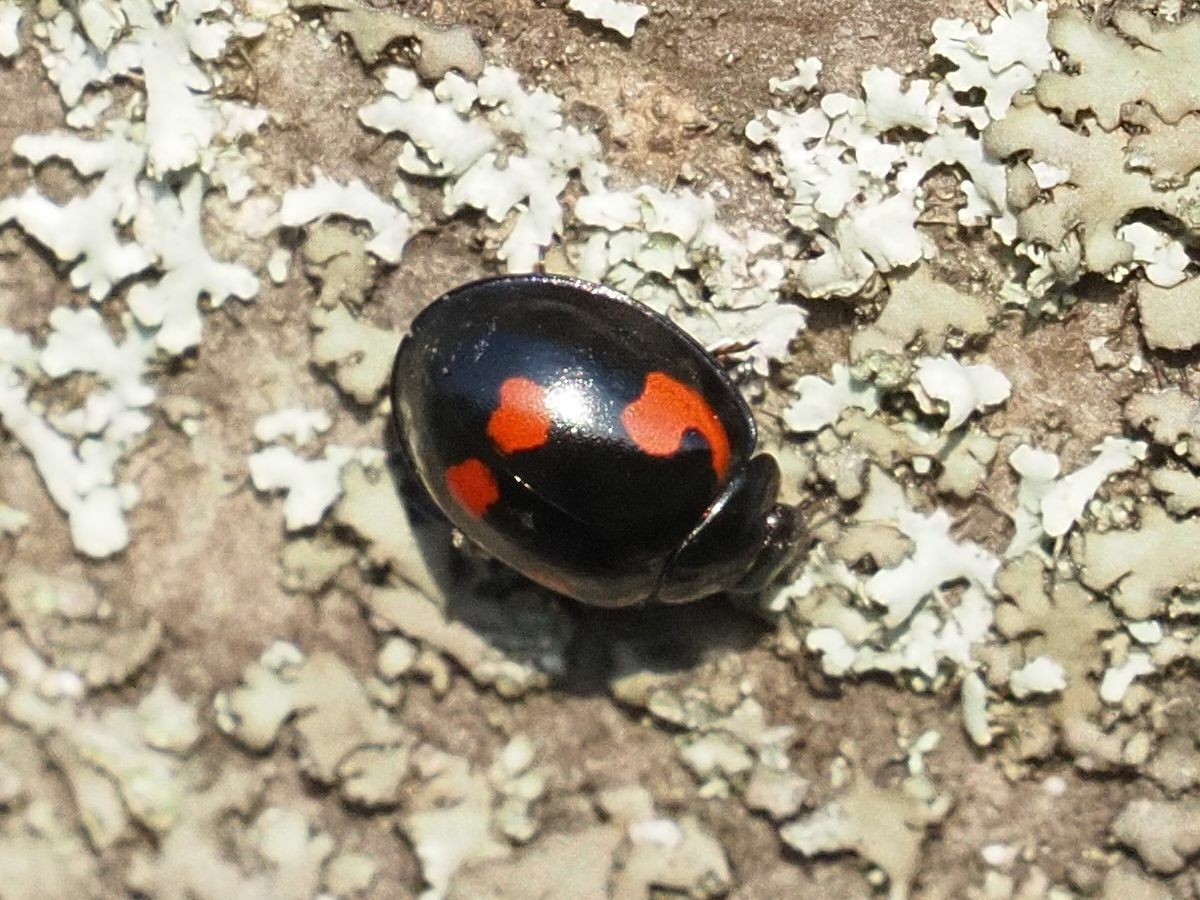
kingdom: Animalia
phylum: Arthropoda
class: Insecta
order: Coleoptera
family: Coccinellidae
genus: Brumus
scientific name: Brumus quadripustulatus
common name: Ladybird beetle
